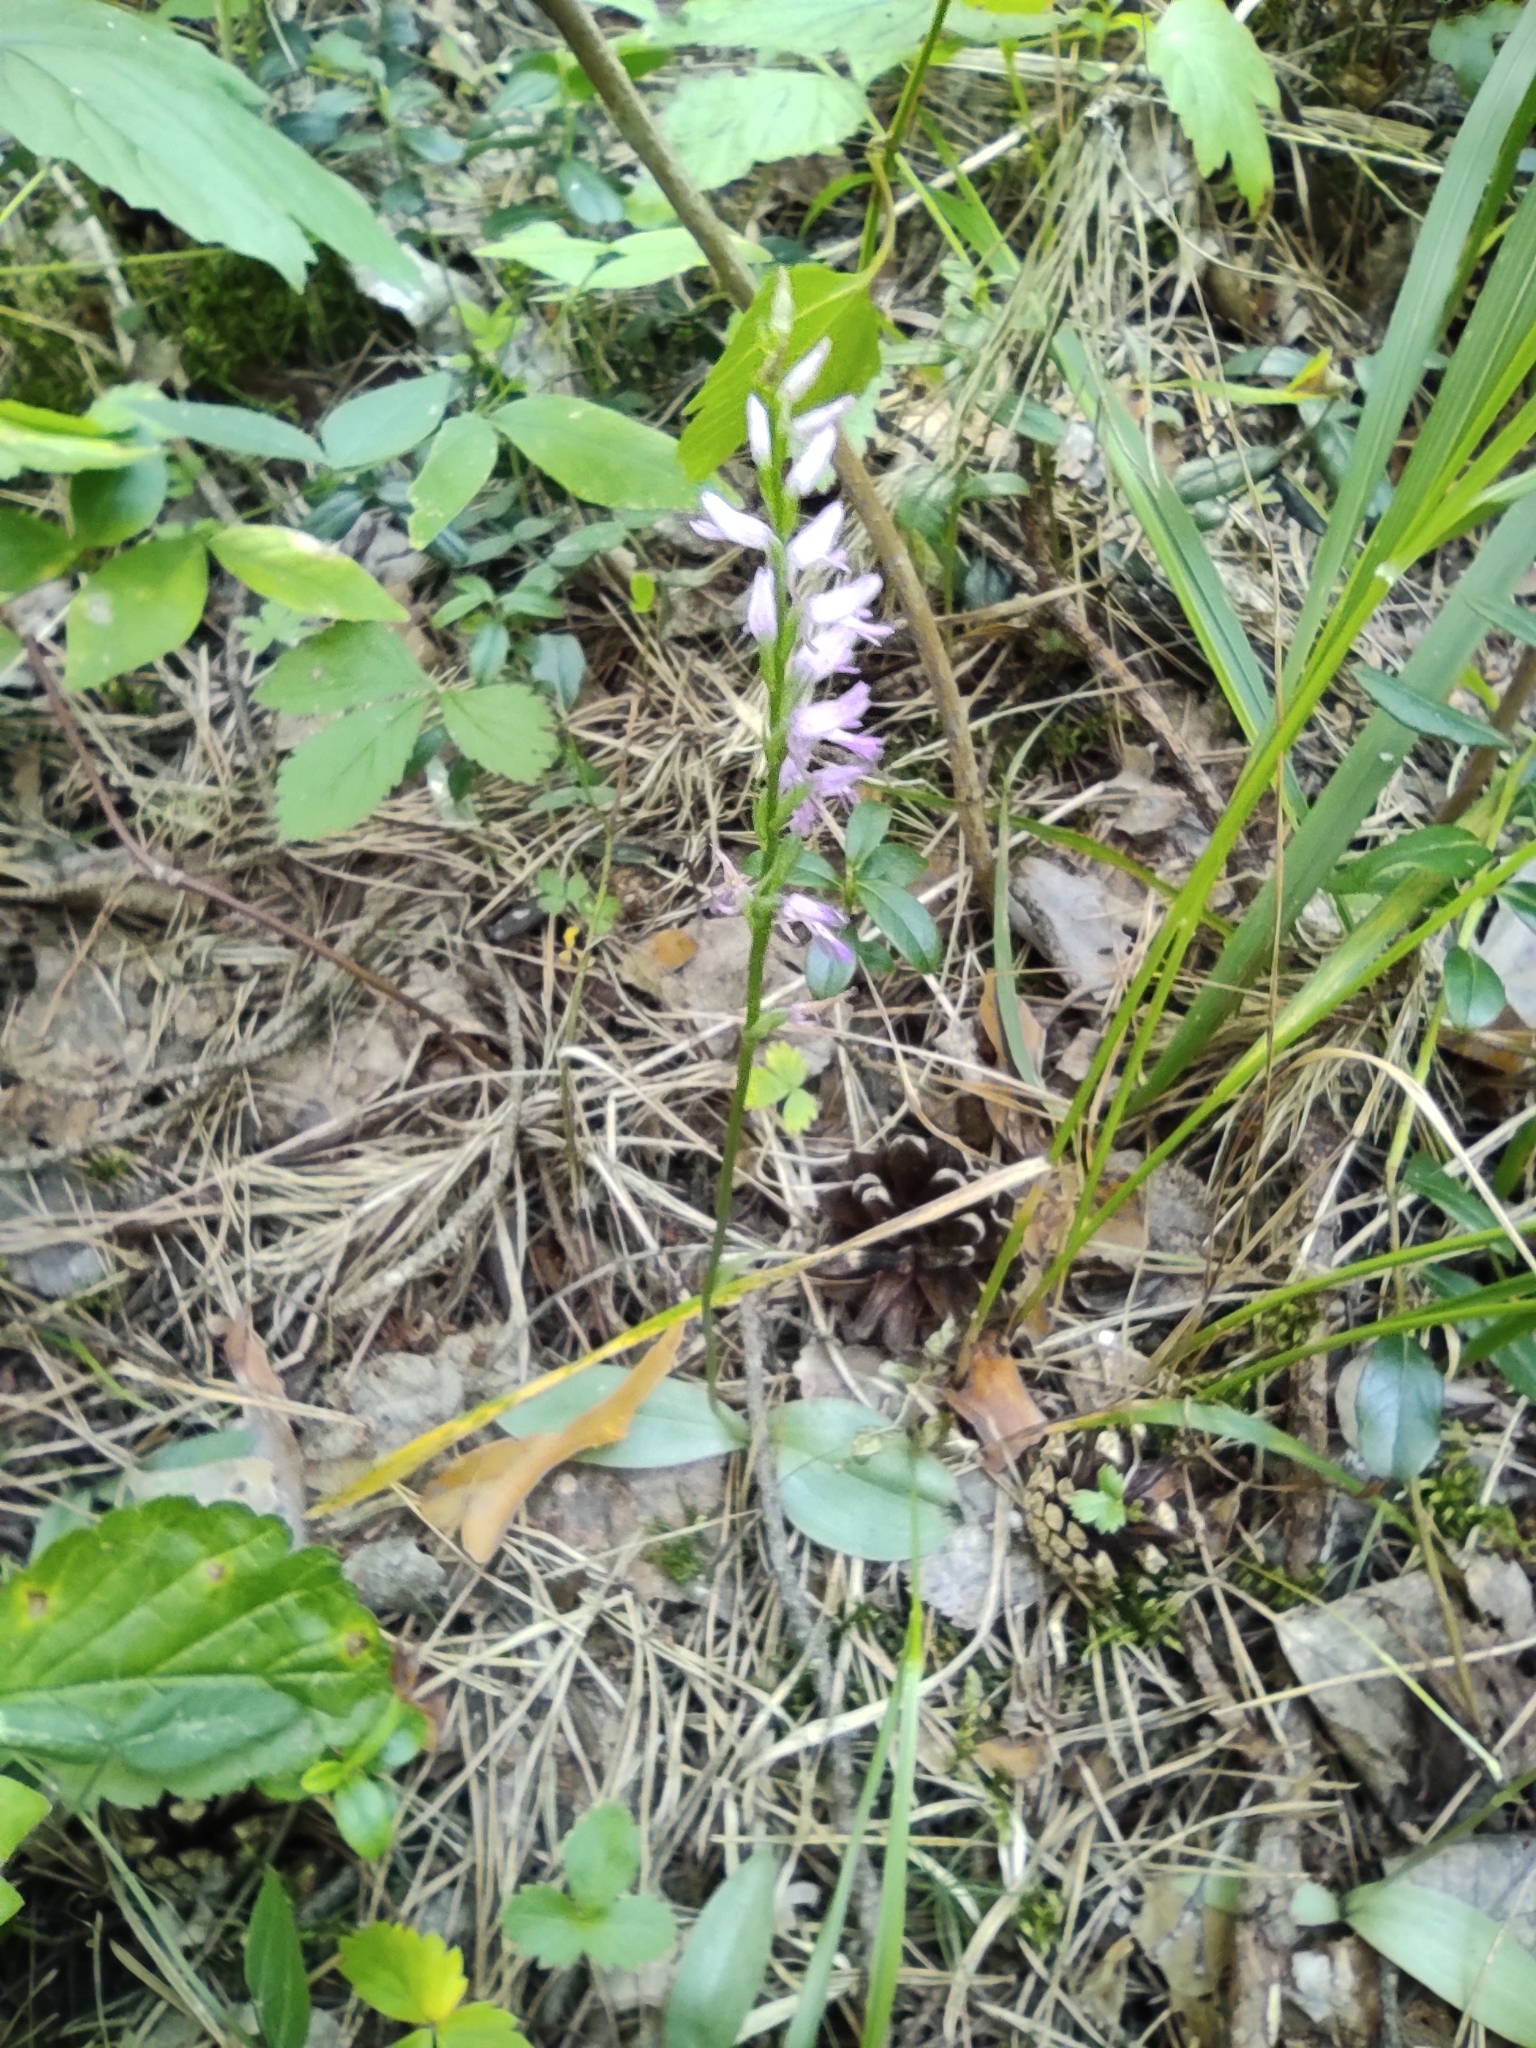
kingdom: Plantae
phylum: Tracheophyta
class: Liliopsida
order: Asparagales
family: Orchidaceae
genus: Hemipilia
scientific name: Hemipilia cucullata
